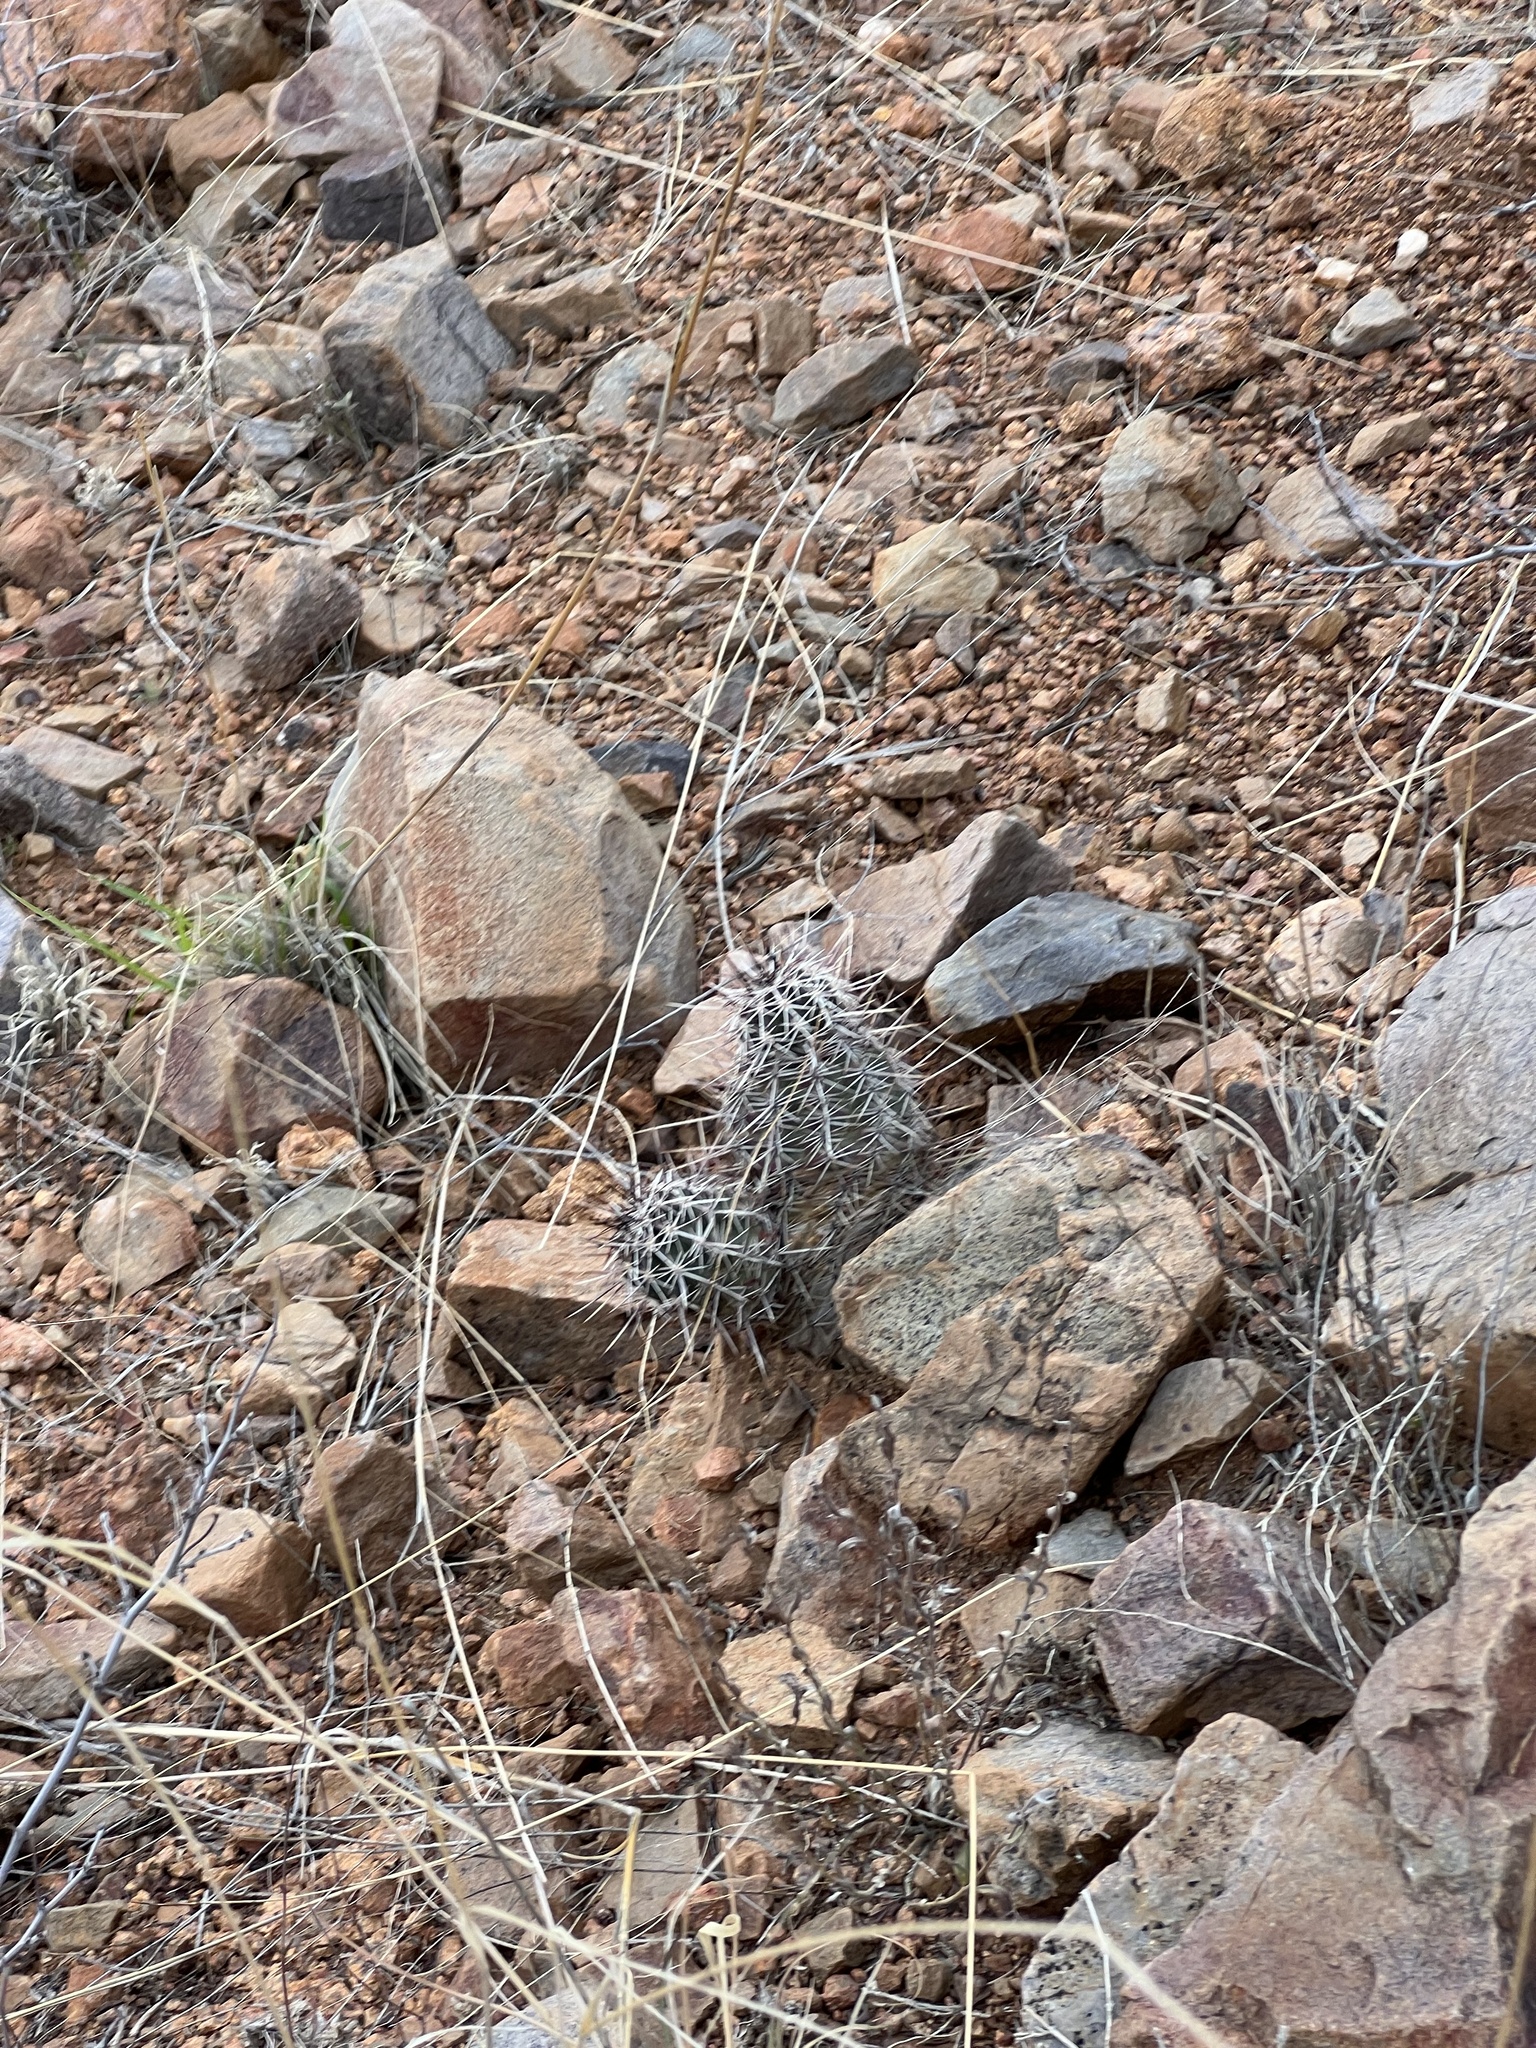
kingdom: Plantae
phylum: Tracheophyta
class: Magnoliopsida
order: Caryophyllales
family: Cactaceae
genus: Echinocereus
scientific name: Echinocereus fasciculatus
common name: Bundle hedgehog
